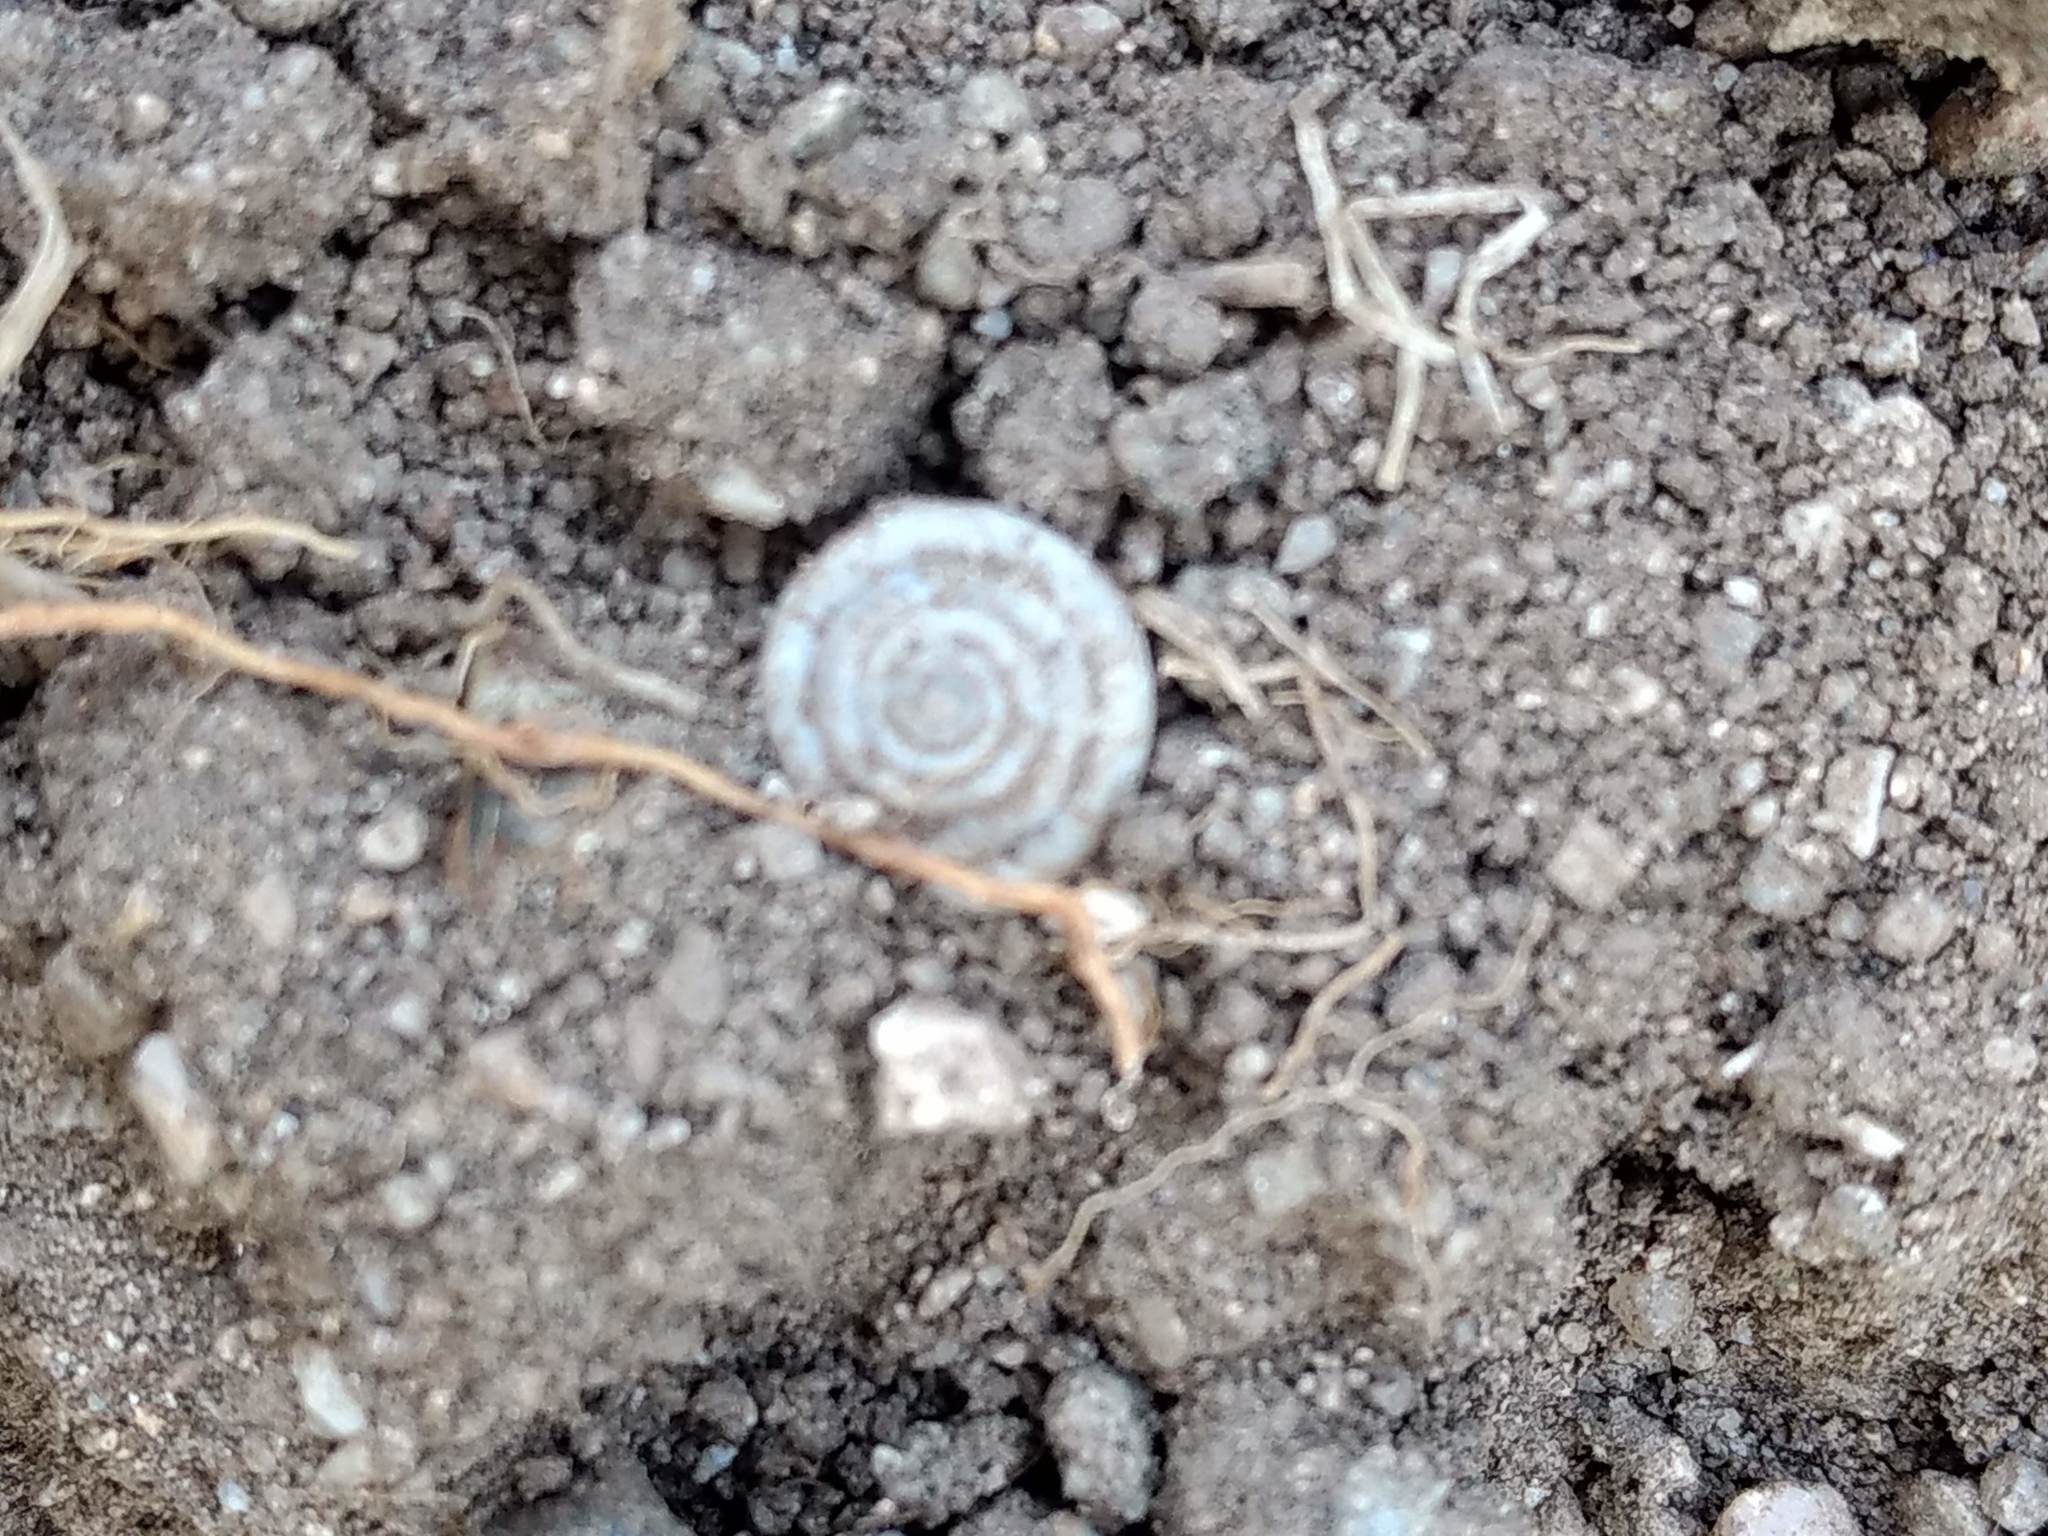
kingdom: Animalia
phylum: Mollusca
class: Gastropoda
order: Stylommatophora
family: Polygyridae
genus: Polygyra
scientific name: Polygyra cereolus
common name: Southern flatcone snail
